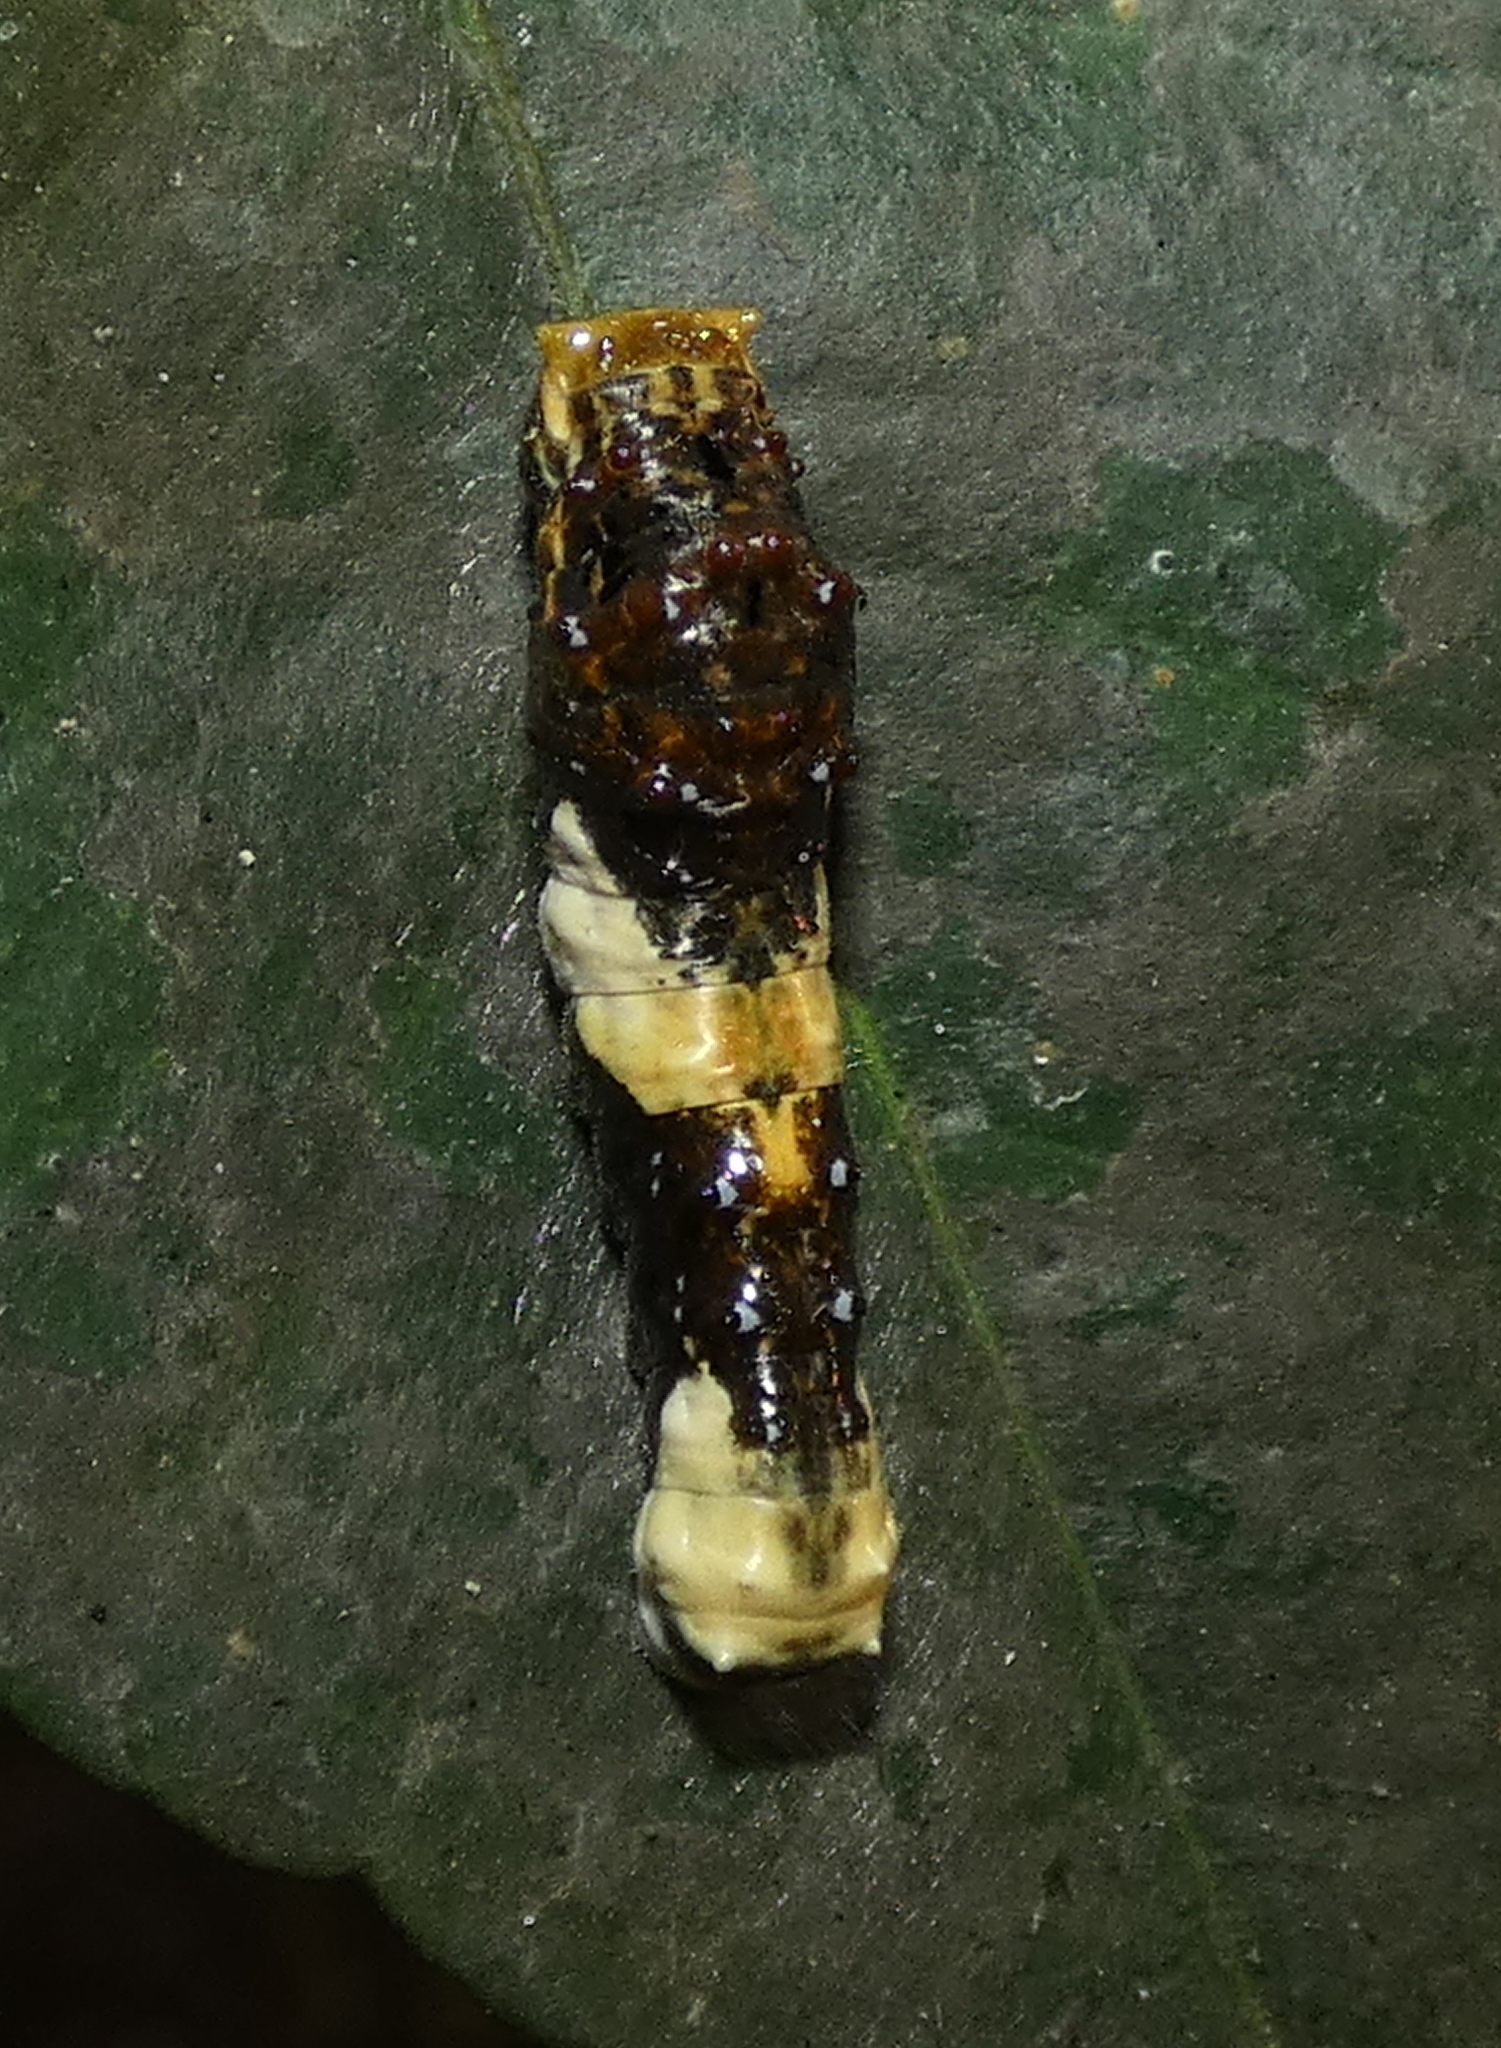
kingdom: Animalia
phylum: Arthropoda
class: Insecta
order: Lepidoptera
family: Papilionidae
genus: Papilio
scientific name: Papilio thoas
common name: King swallowtail
